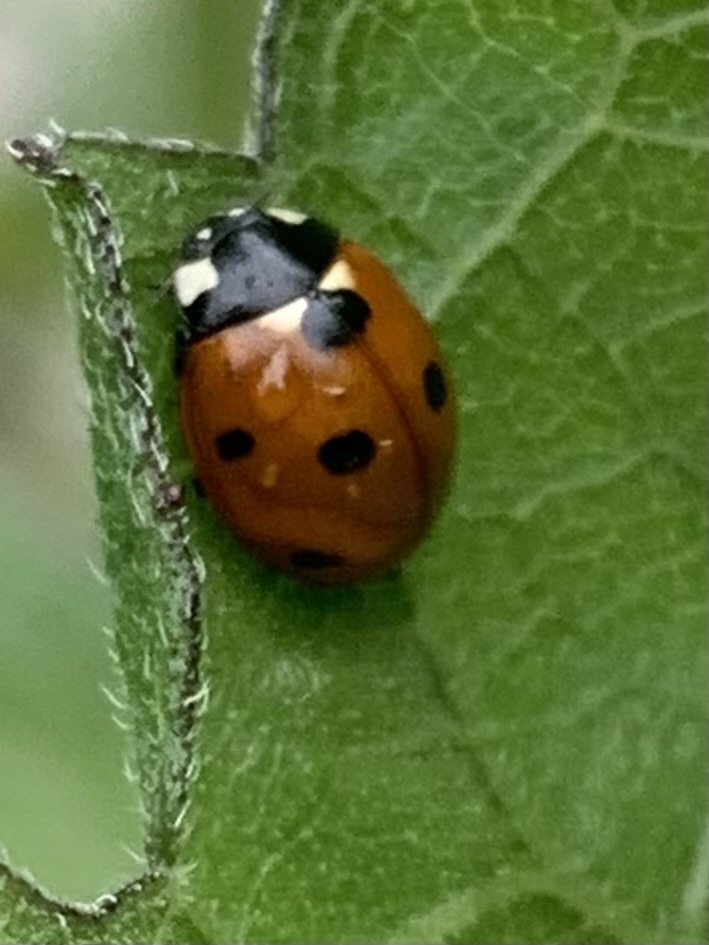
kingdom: Animalia
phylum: Arthropoda
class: Insecta
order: Coleoptera
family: Coccinellidae
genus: Coccinella
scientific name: Coccinella septempunctata
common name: Sevenspotted lady beetle
